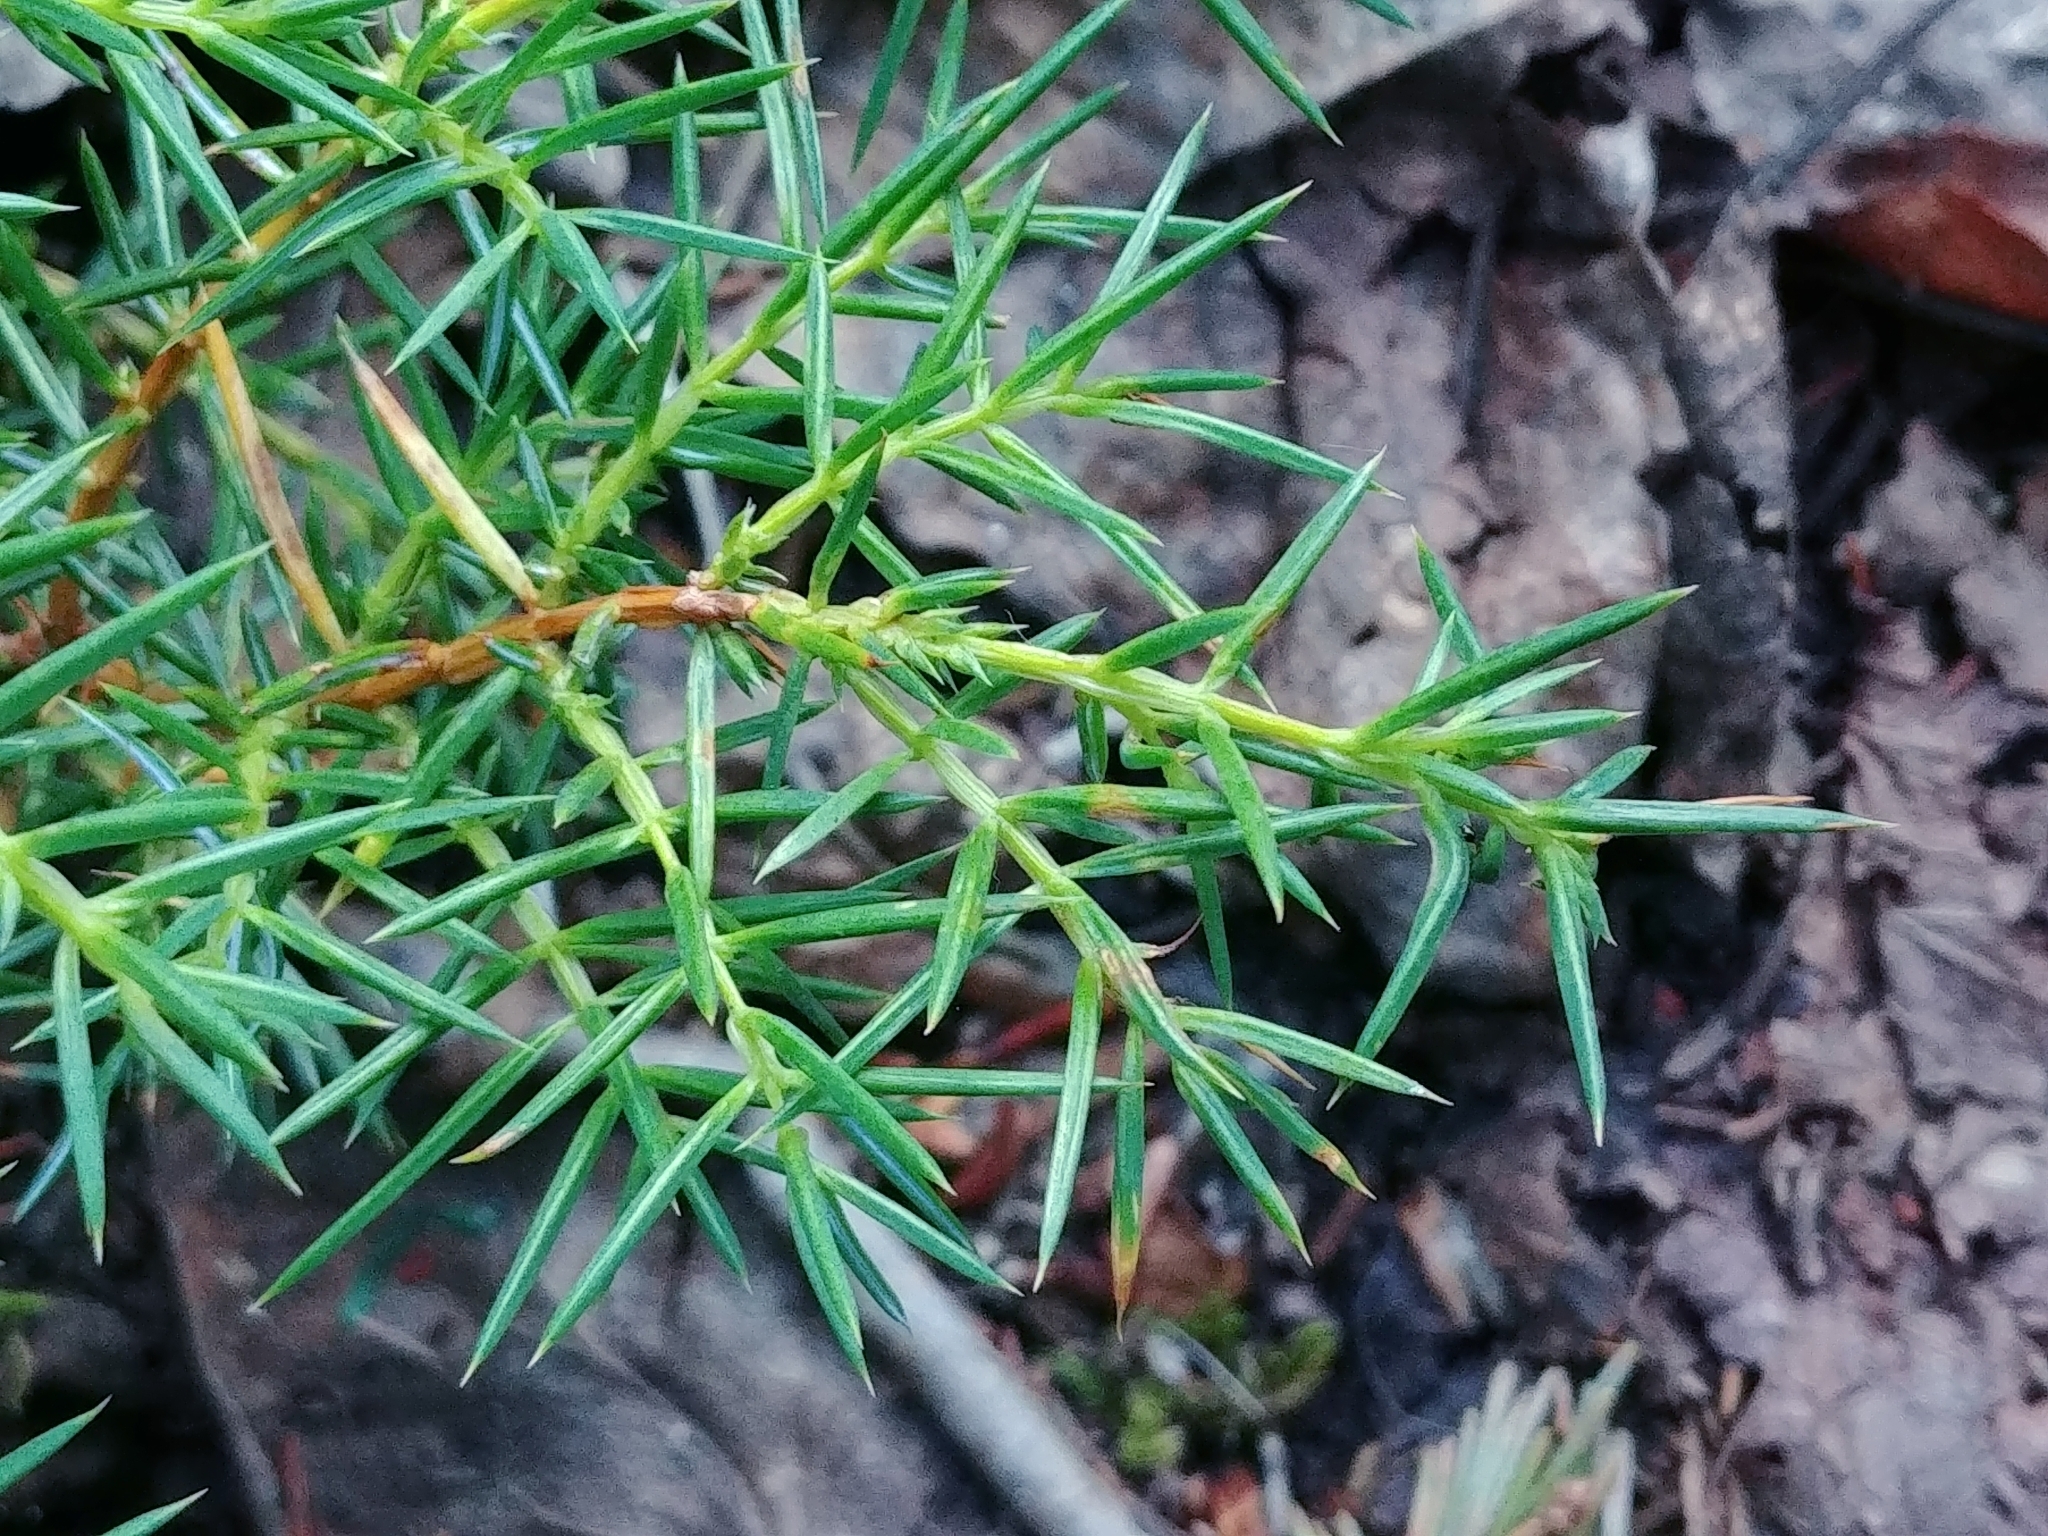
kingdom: Plantae
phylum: Tracheophyta
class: Pinopsida
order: Pinales
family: Cupressaceae
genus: Juniperus
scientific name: Juniperus communis
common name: Common juniper
